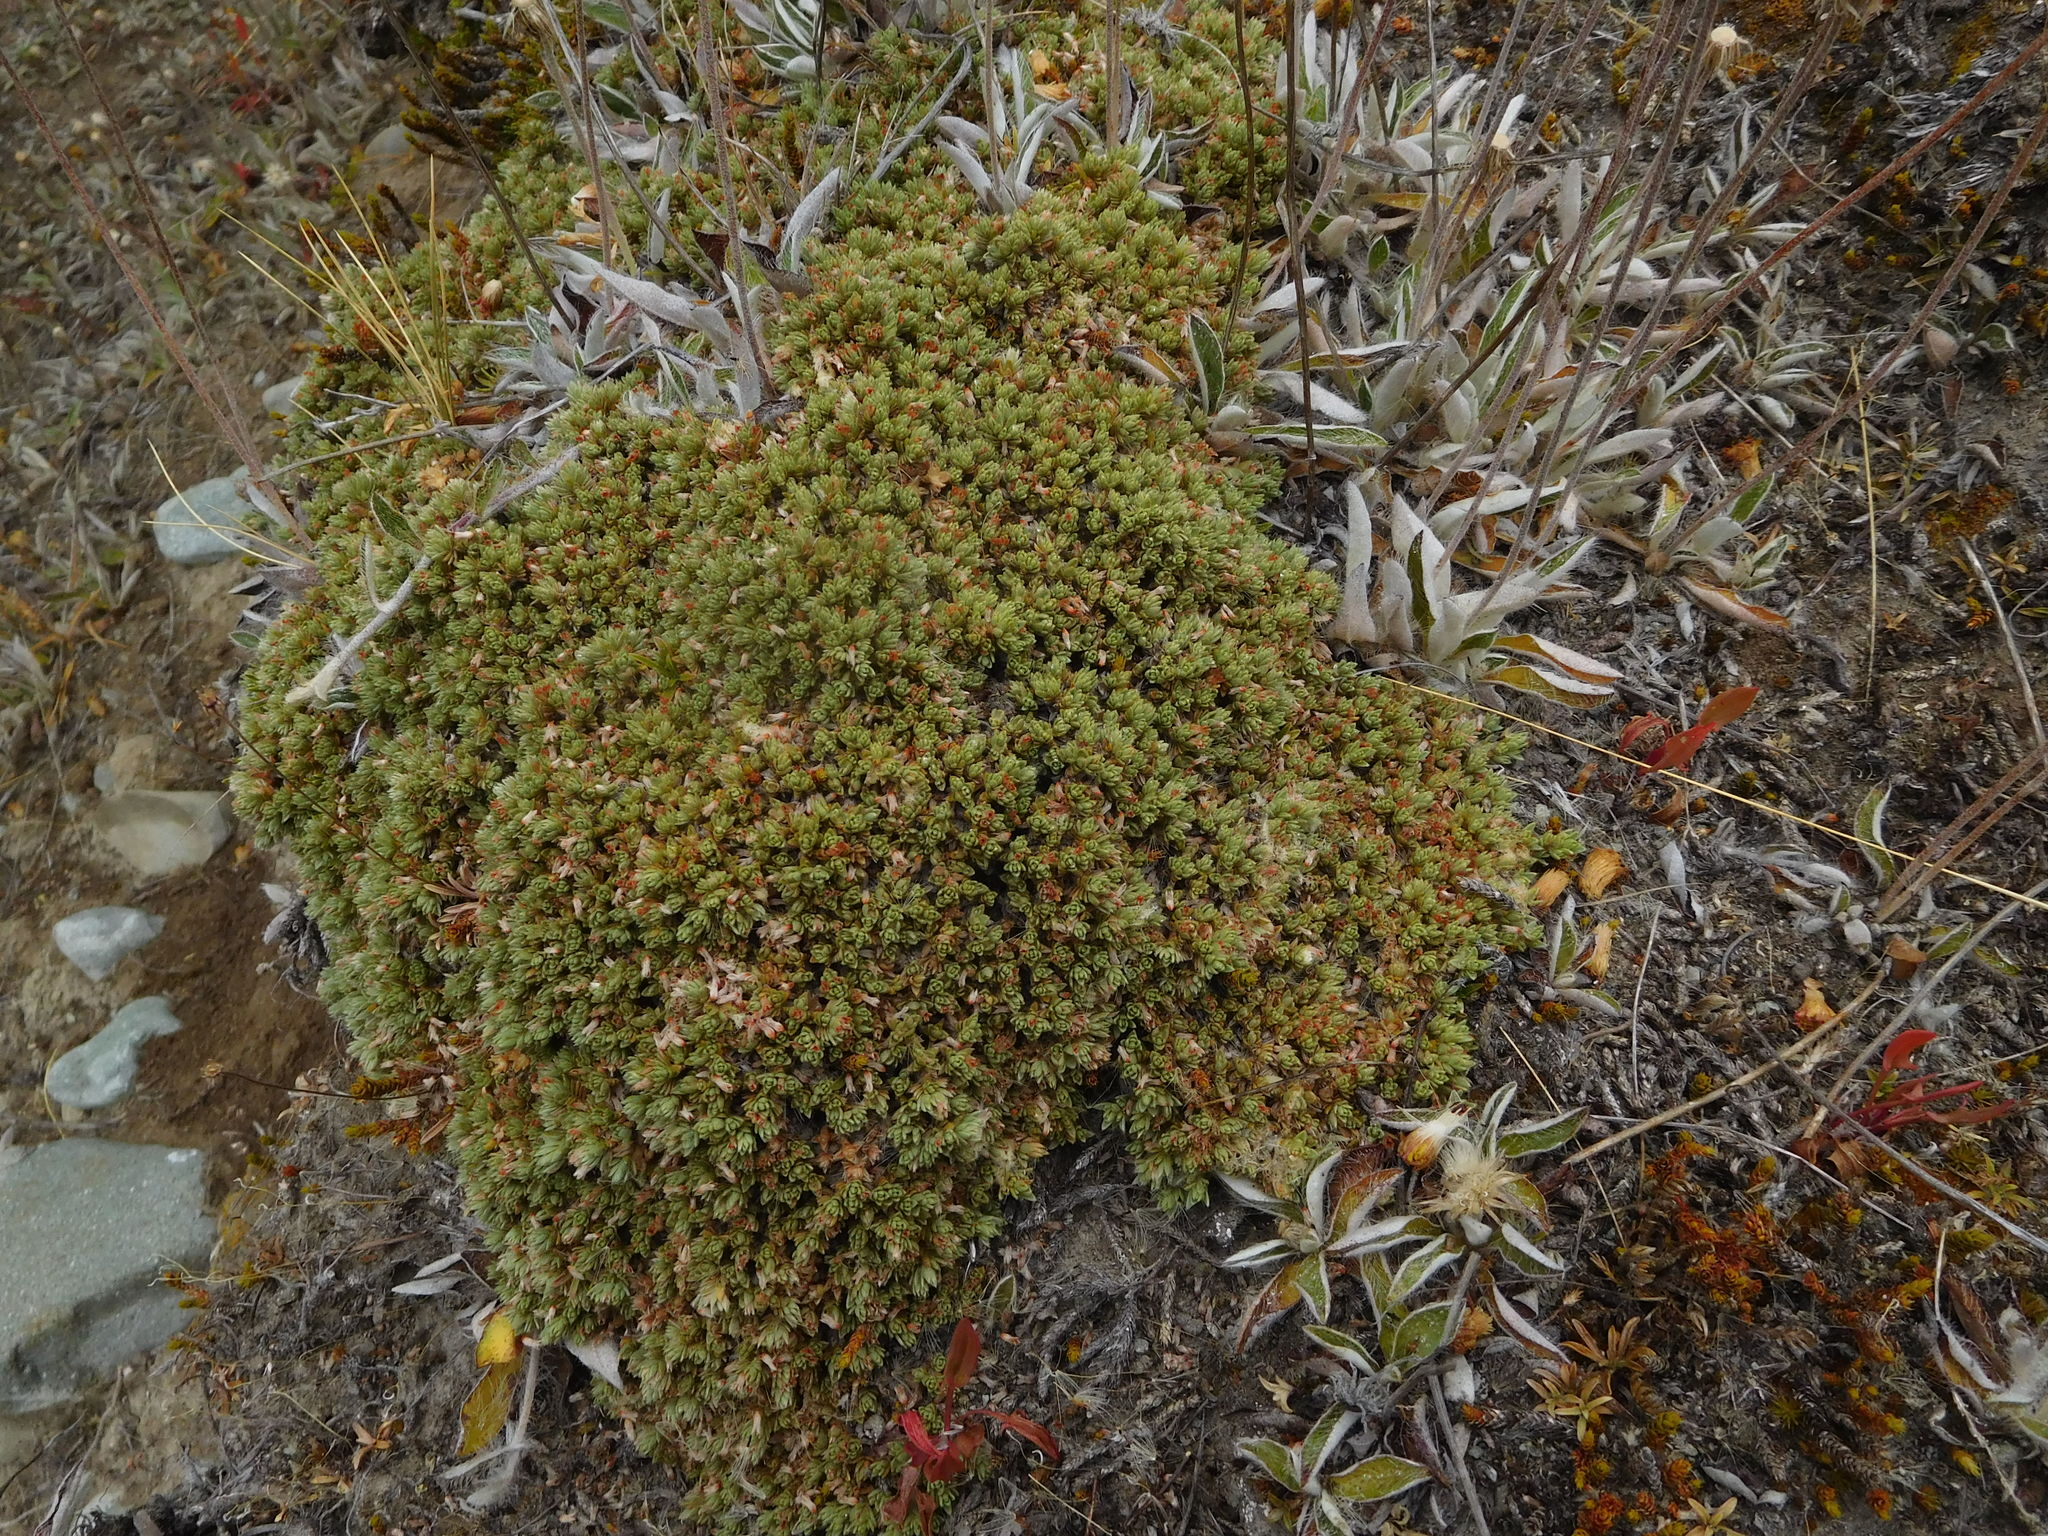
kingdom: Plantae
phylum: Tracheophyta
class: Magnoliopsida
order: Malvales
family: Thymelaeaceae
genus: Pimelea
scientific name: Pimelea sericeovillosa
